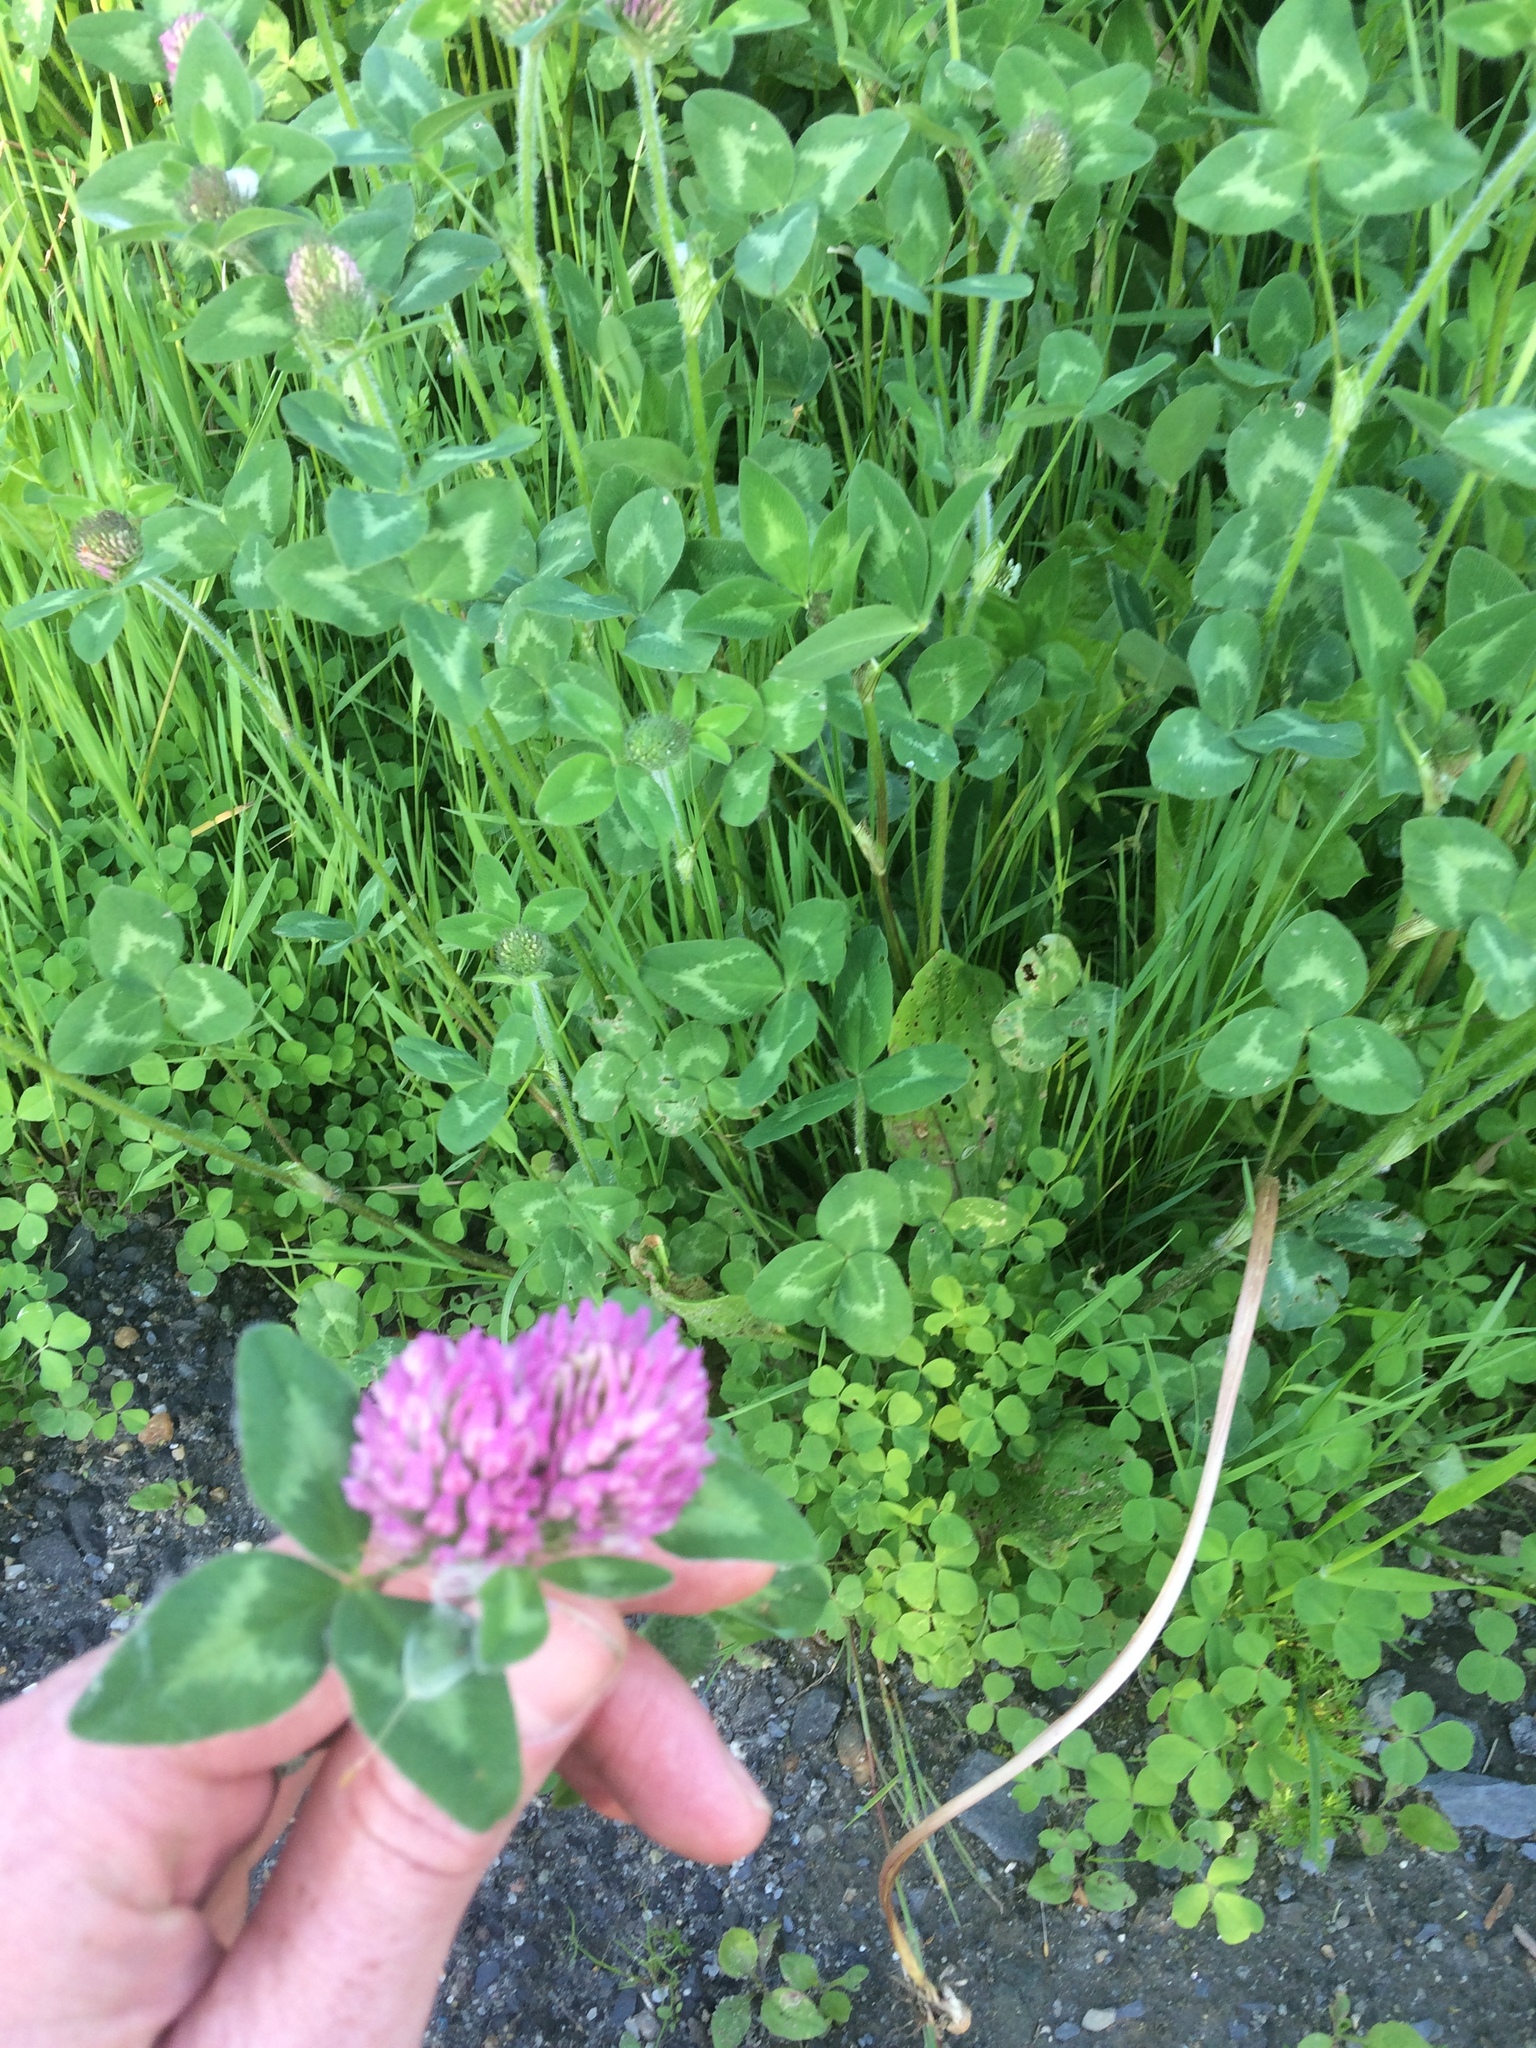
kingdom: Plantae
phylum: Tracheophyta
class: Magnoliopsida
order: Fabales
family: Fabaceae
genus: Trifolium
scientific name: Trifolium pratense
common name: Red clover
